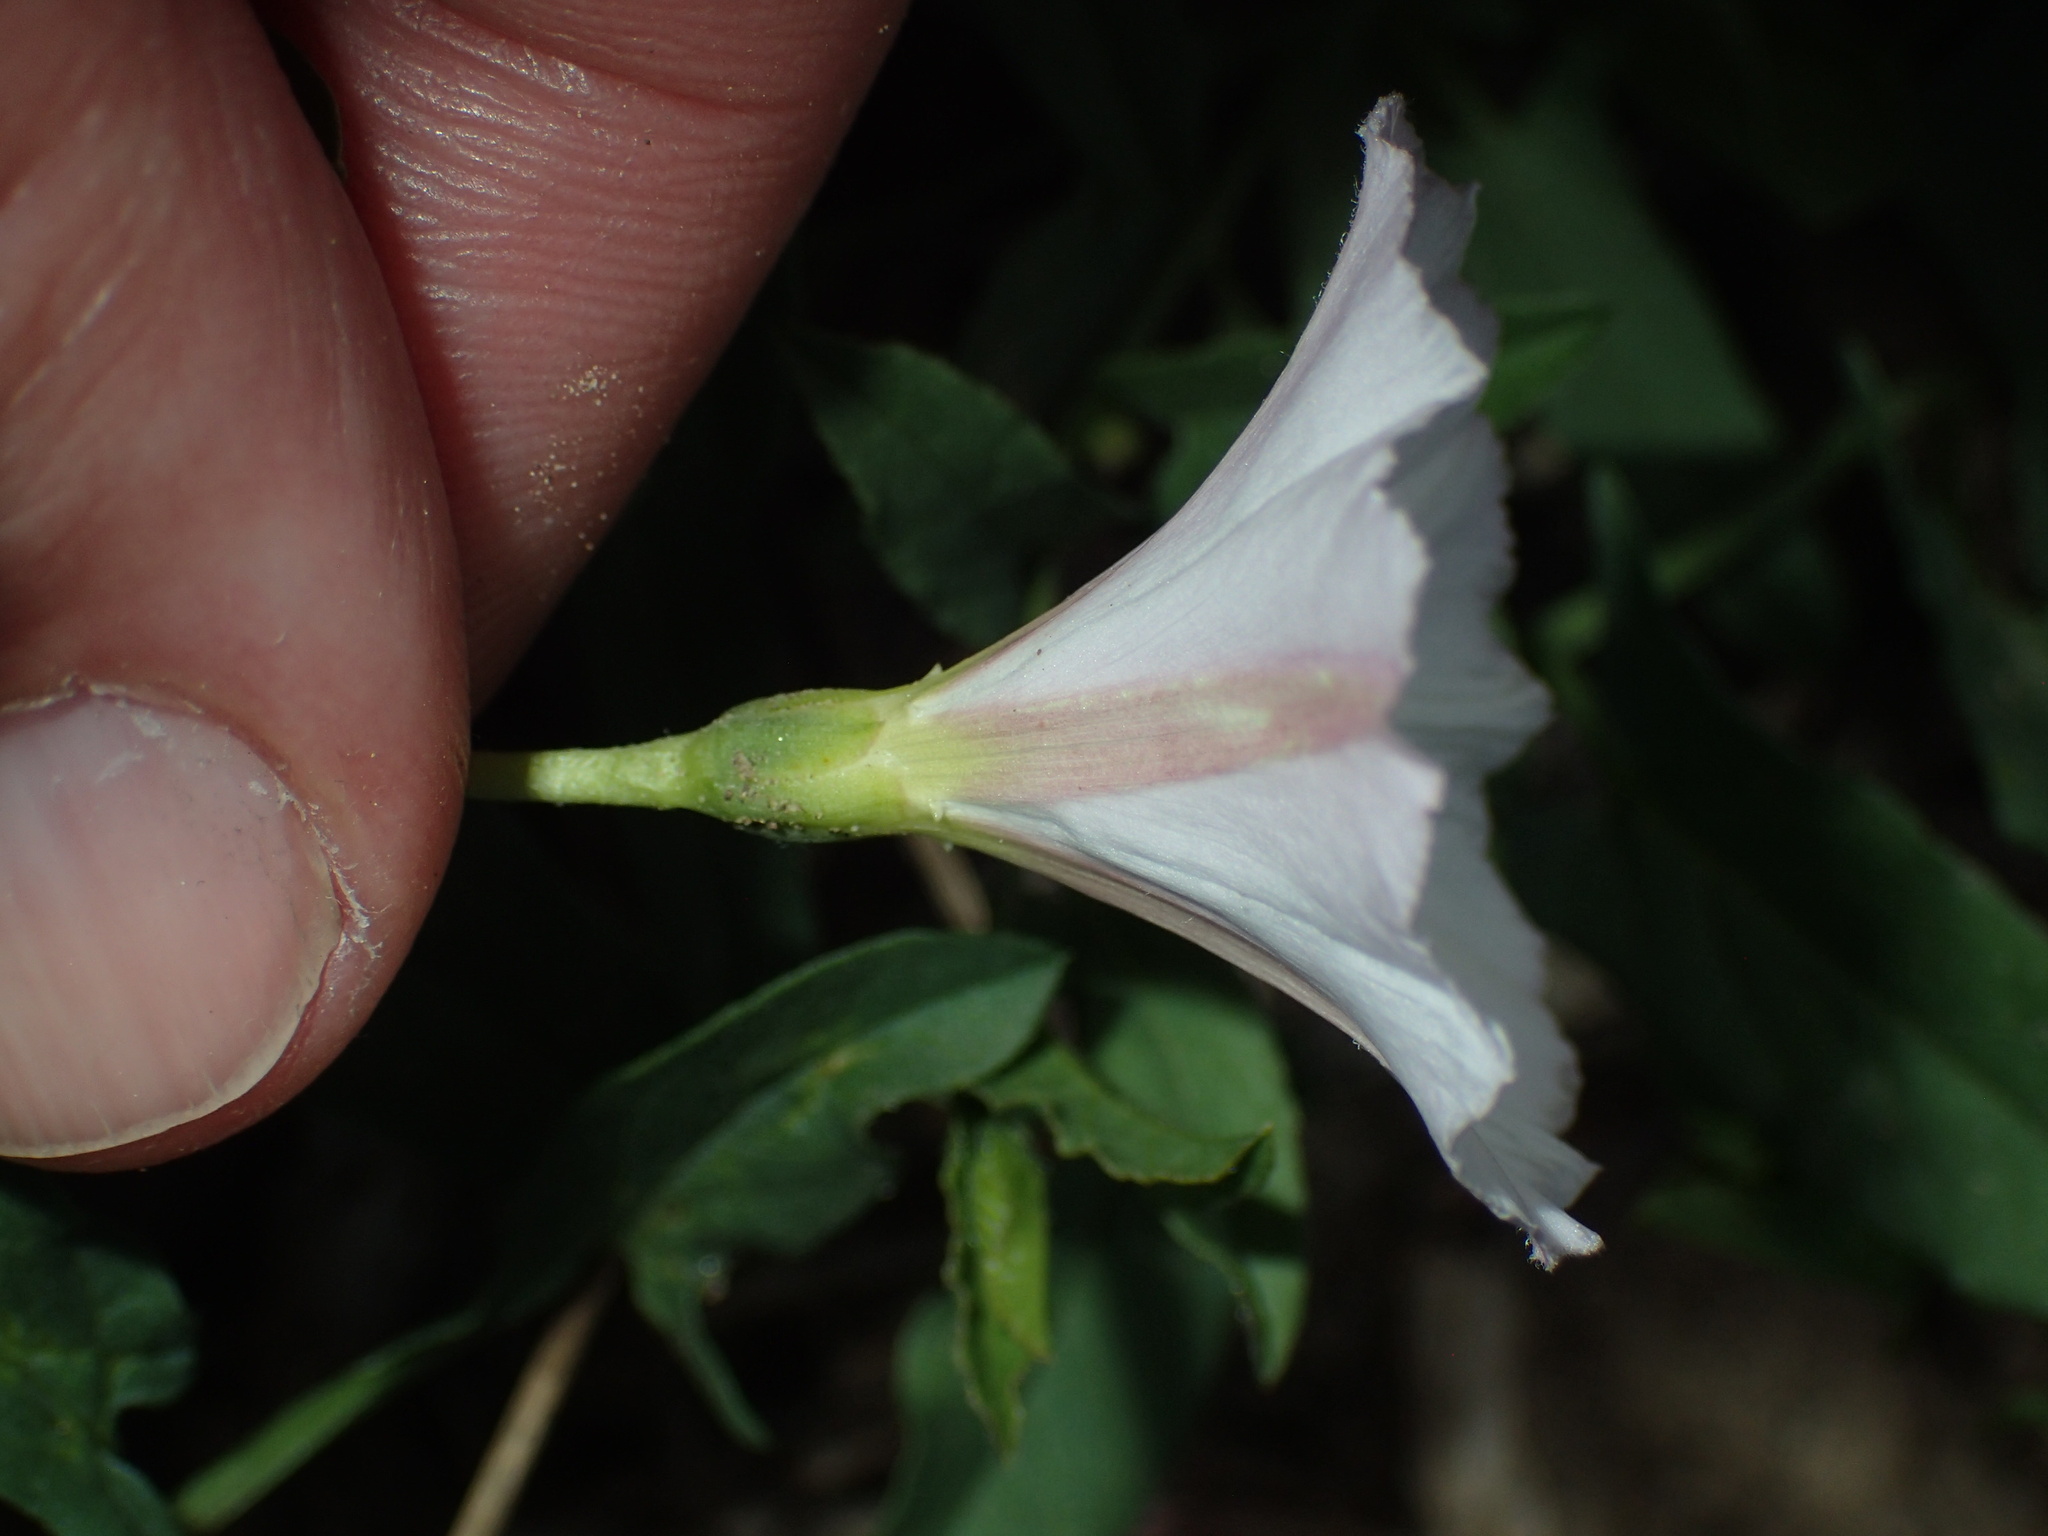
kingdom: Plantae
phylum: Tracheophyta
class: Magnoliopsida
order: Solanales
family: Convolvulaceae
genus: Convolvulus
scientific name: Convolvulus arvensis
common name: Field bindweed
